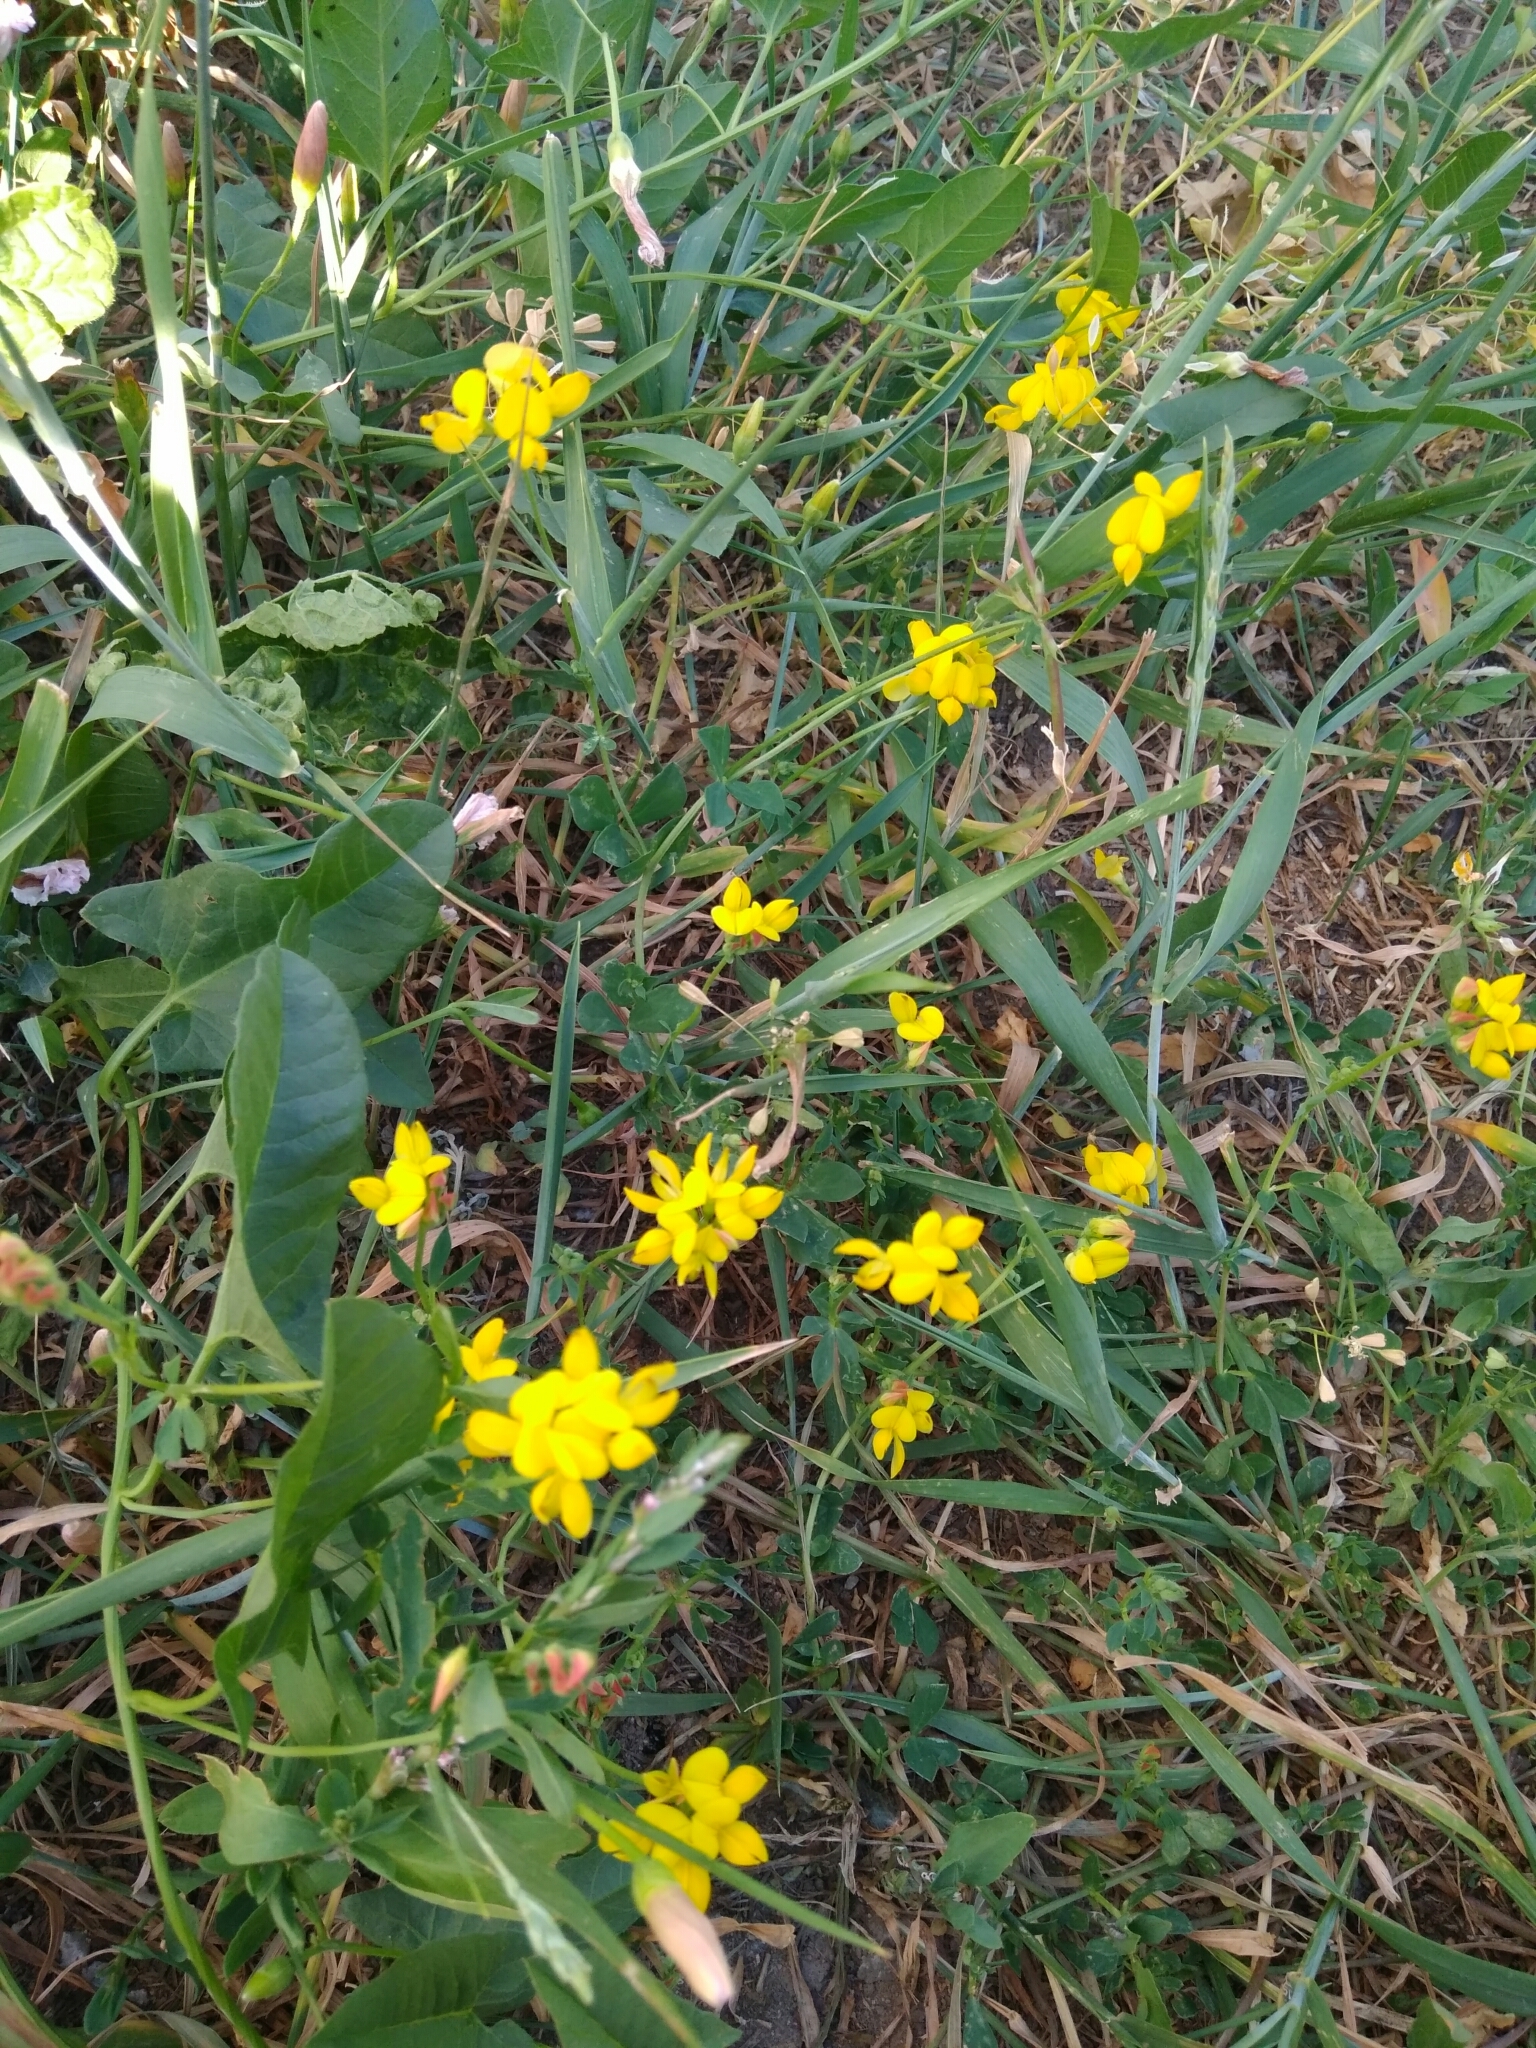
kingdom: Plantae
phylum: Tracheophyta
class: Magnoliopsida
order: Fabales
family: Fabaceae
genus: Lotus
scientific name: Lotus corniculatus
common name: Common bird's-foot-trefoil
